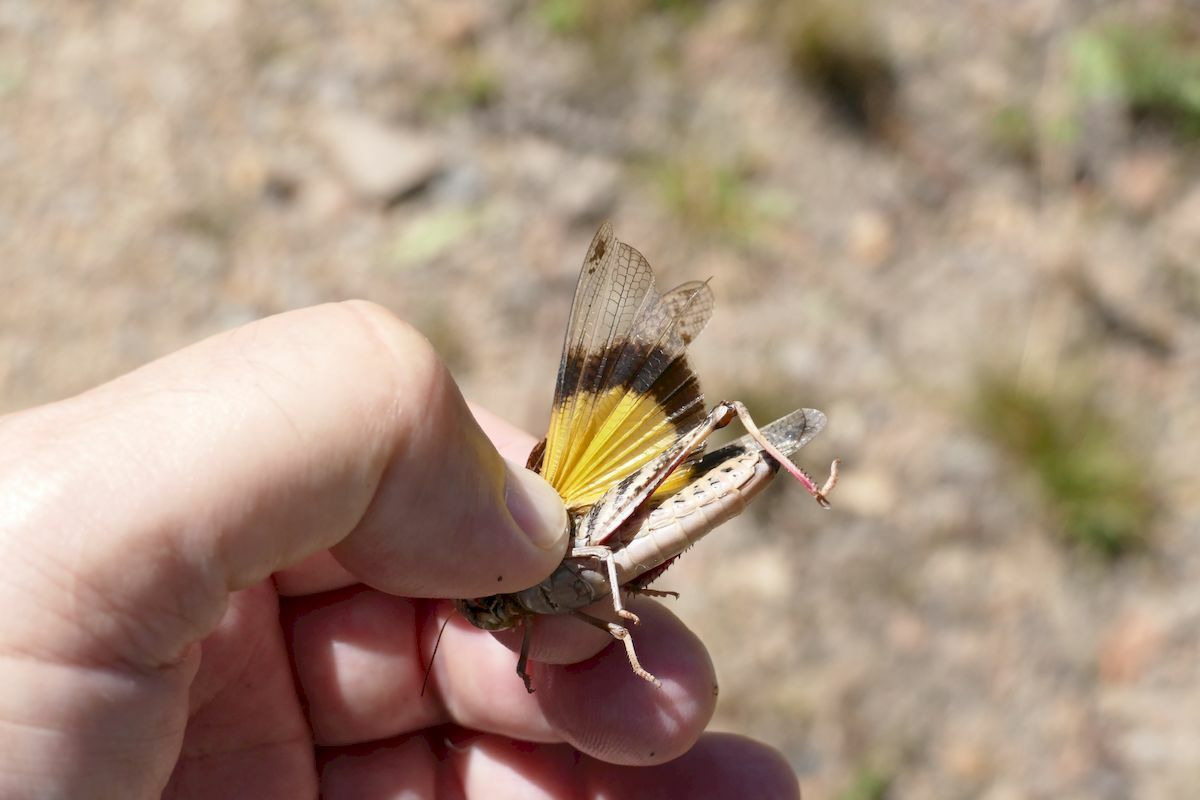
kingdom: Animalia
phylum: Arthropoda
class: Insecta
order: Orthoptera
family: Acrididae
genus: Gastrimargus
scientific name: Gastrimargus musicus
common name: Yellow-winged locust
